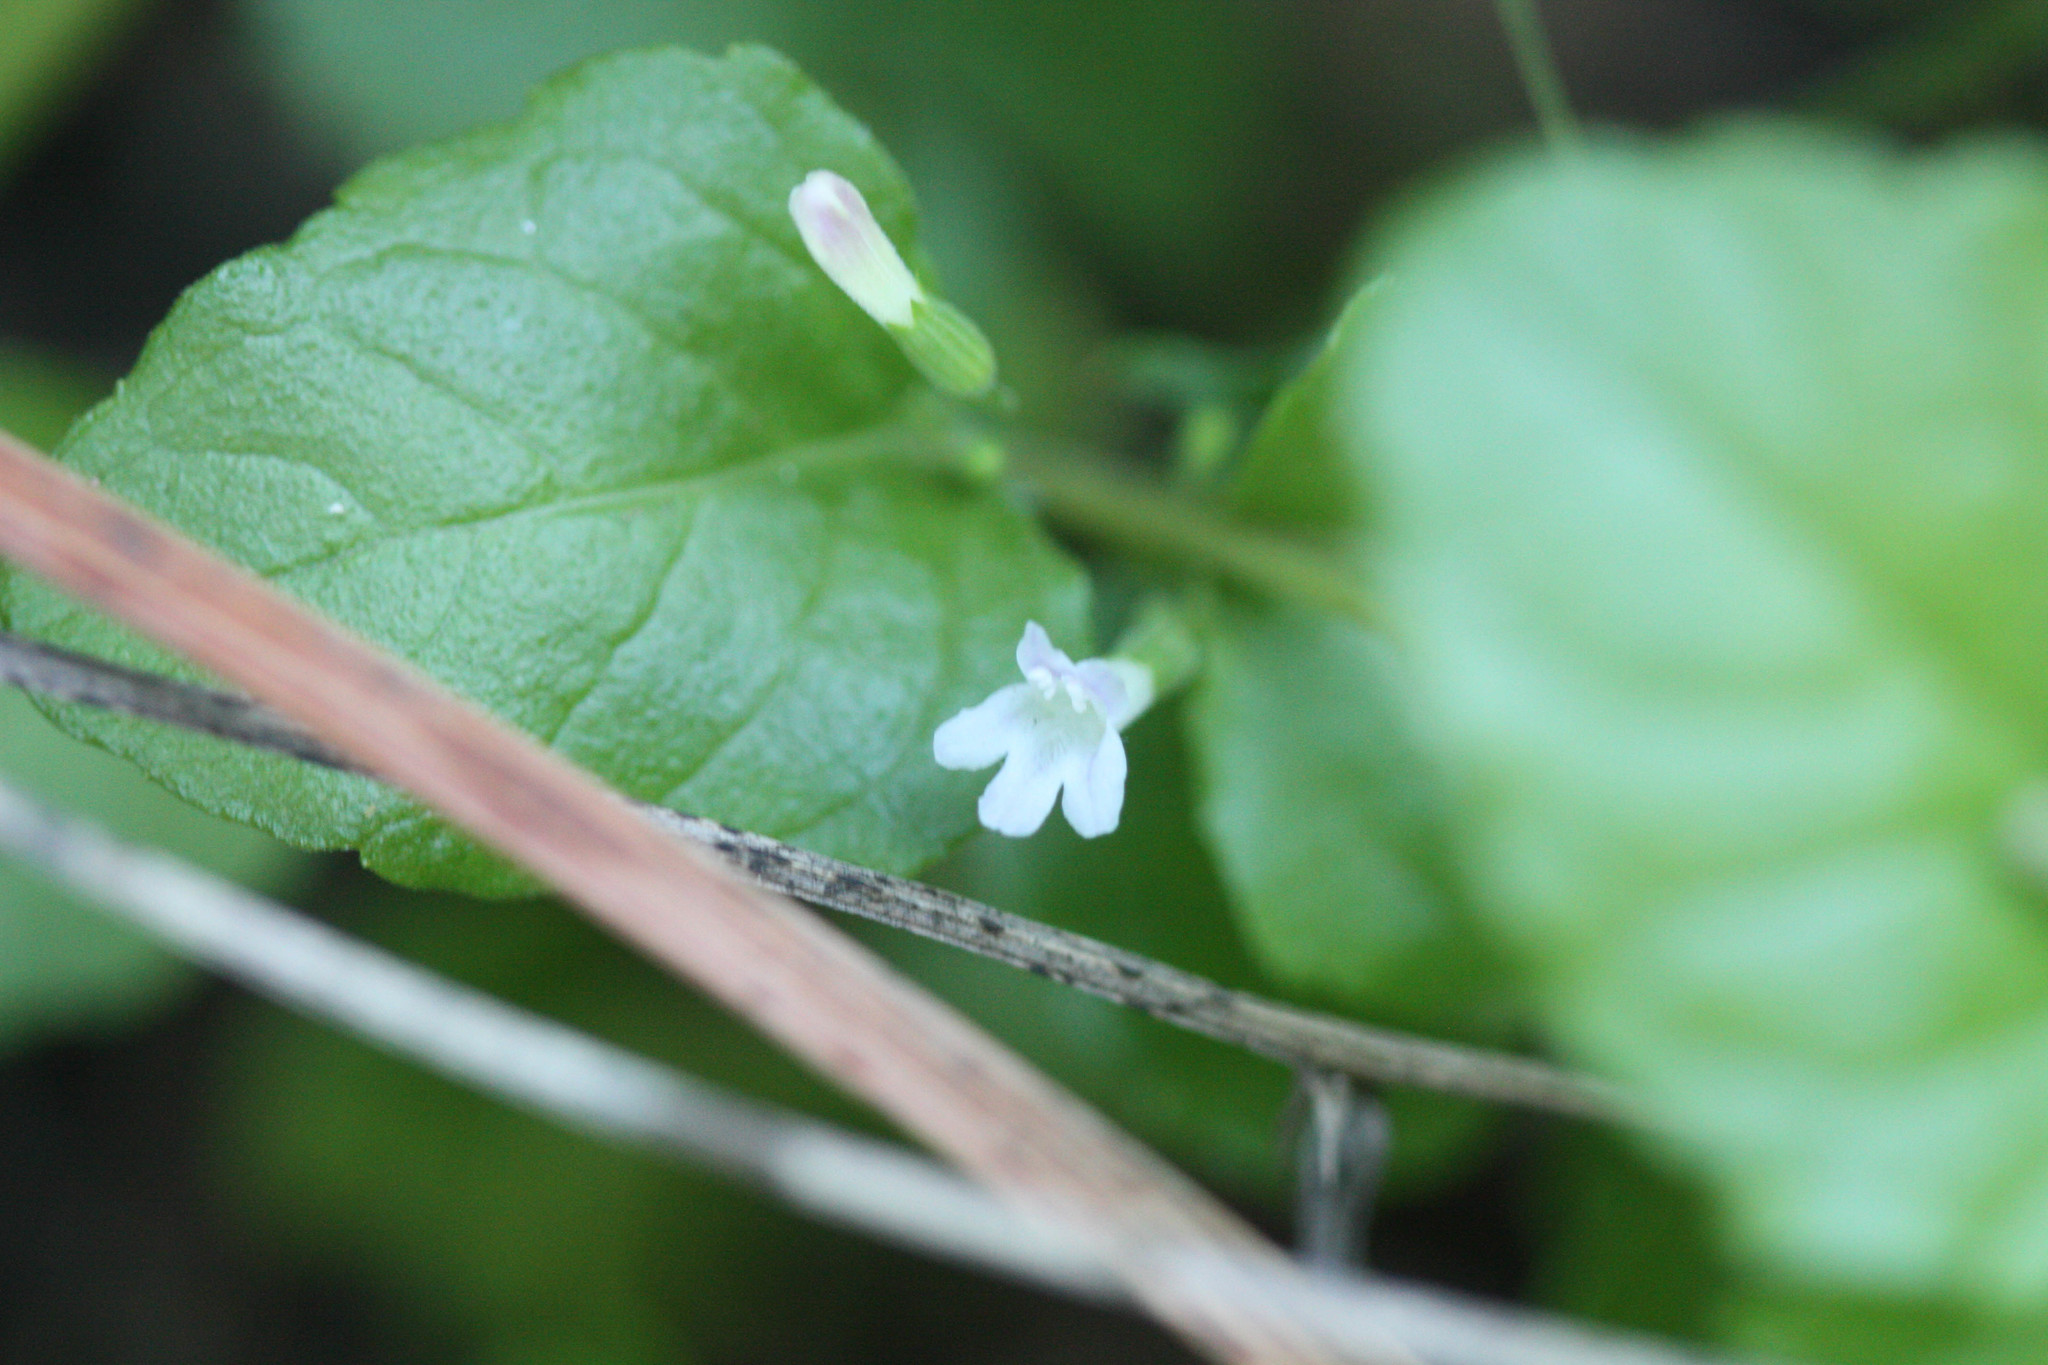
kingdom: Plantae
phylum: Tracheophyta
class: Magnoliopsida
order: Lamiales
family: Lamiaceae
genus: Micromeria
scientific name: Micromeria douglasii
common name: Yerba buena
